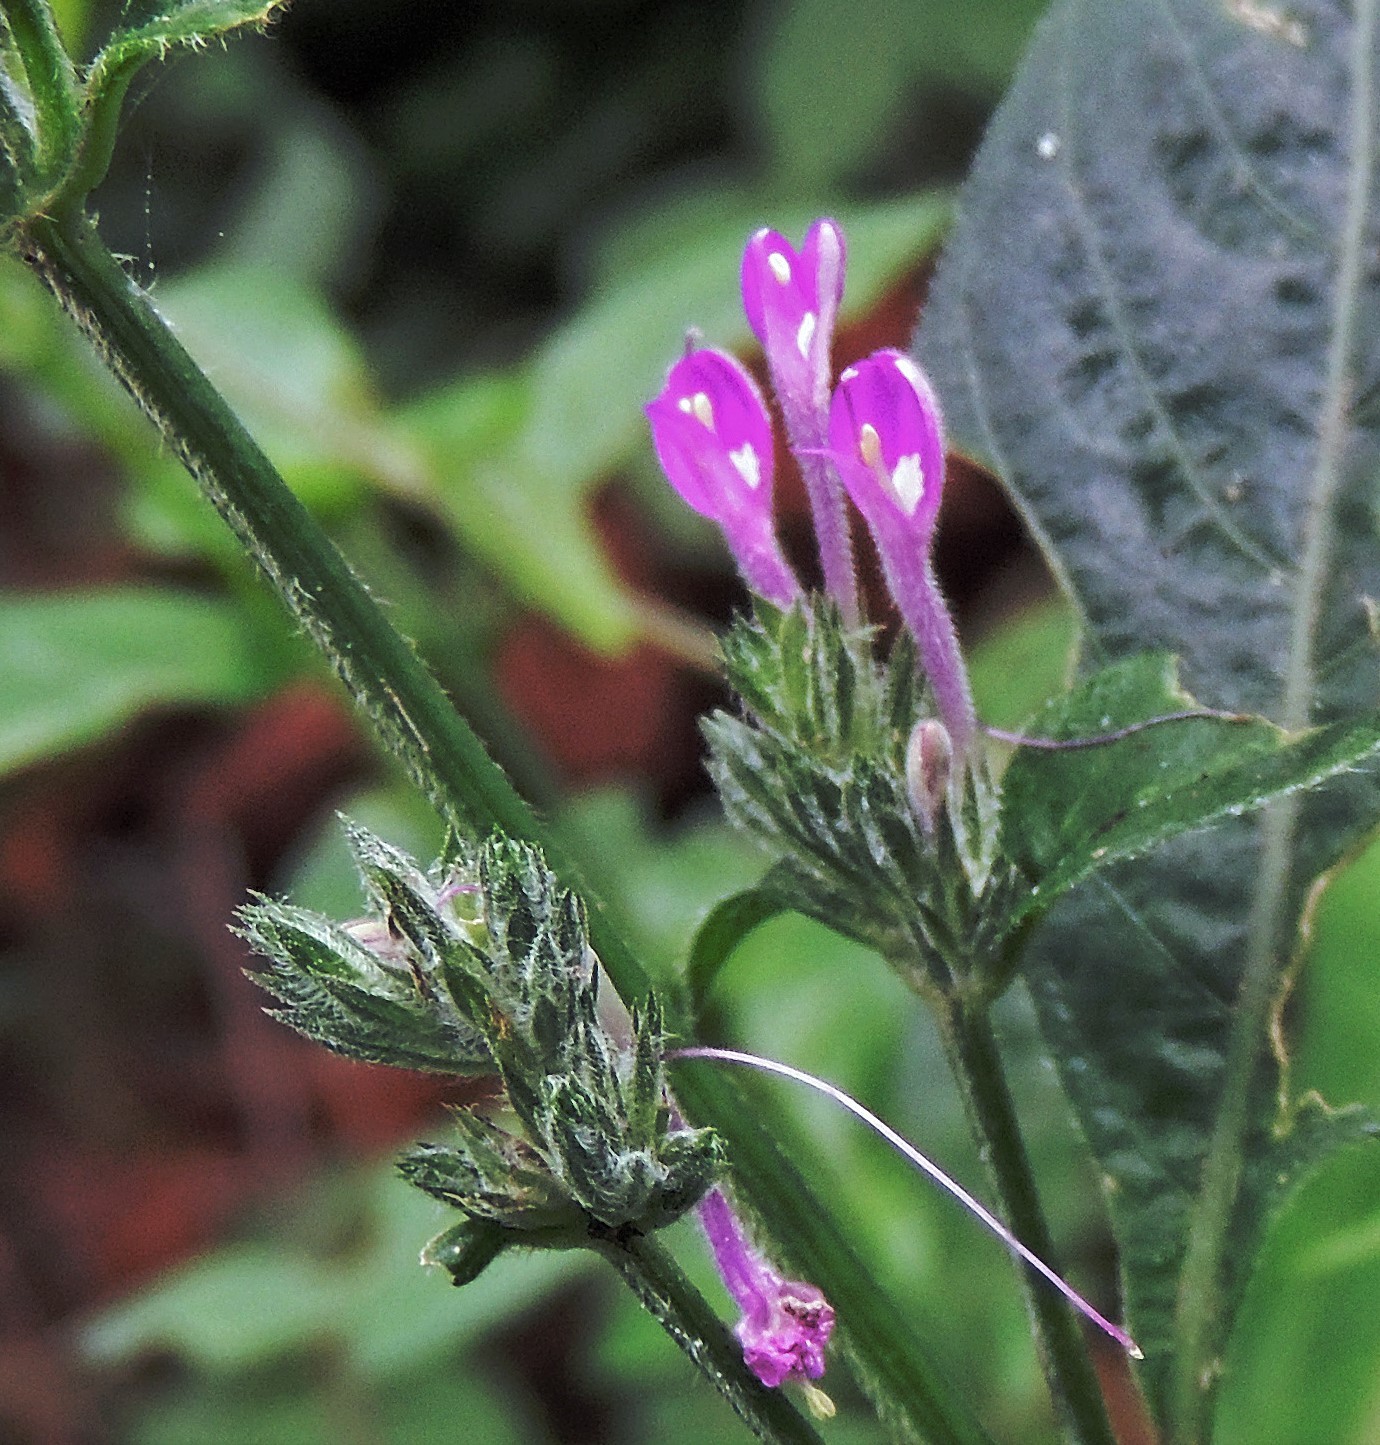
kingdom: Plantae
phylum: Tracheophyta
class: Magnoliopsida
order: Lamiales
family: Acanthaceae
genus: Justicia
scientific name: Justicia goudotii
